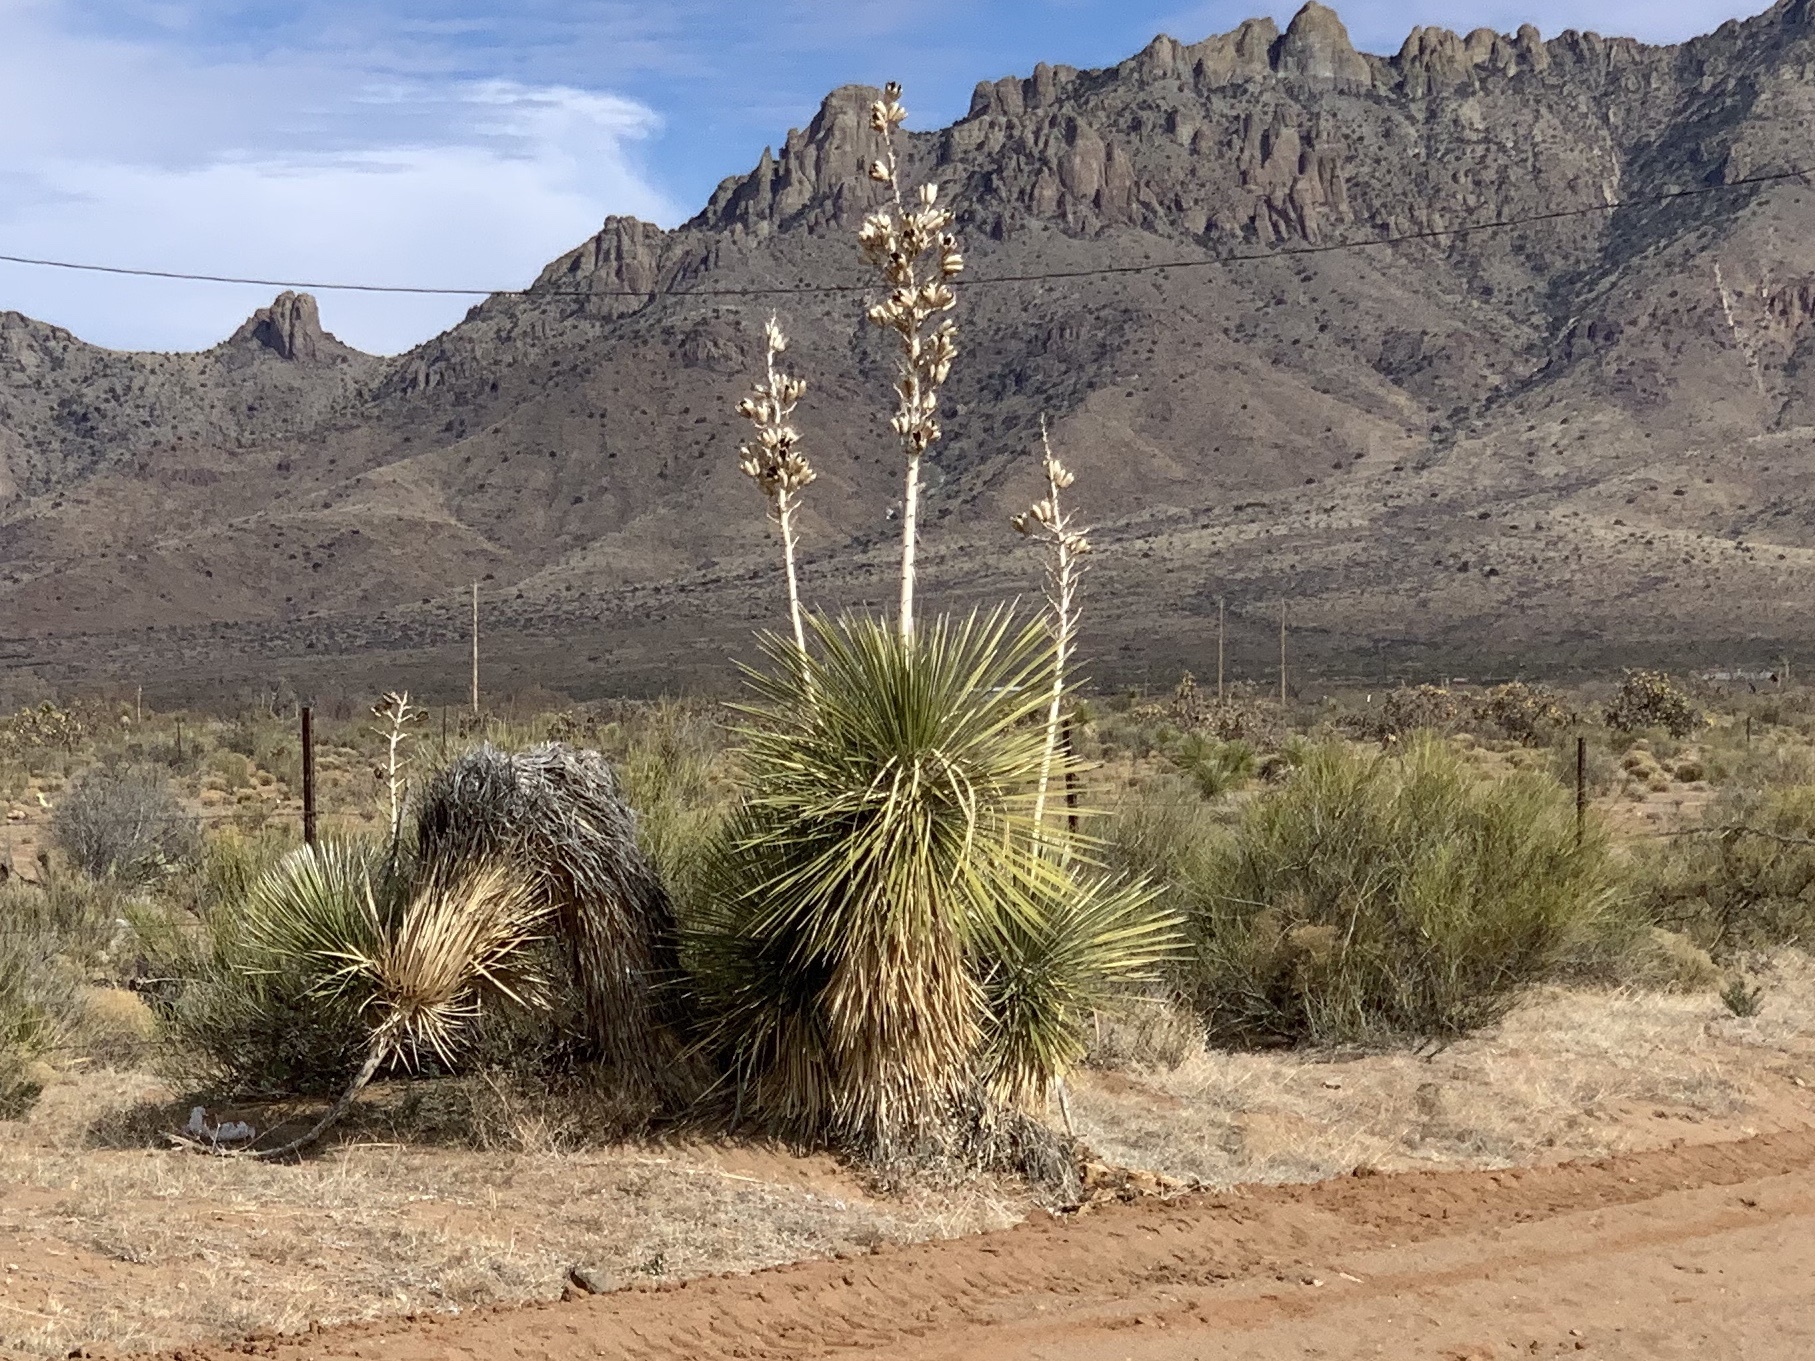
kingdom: Plantae
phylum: Tracheophyta
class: Liliopsida
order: Asparagales
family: Asparagaceae
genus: Yucca
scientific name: Yucca elata
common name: Palmella
